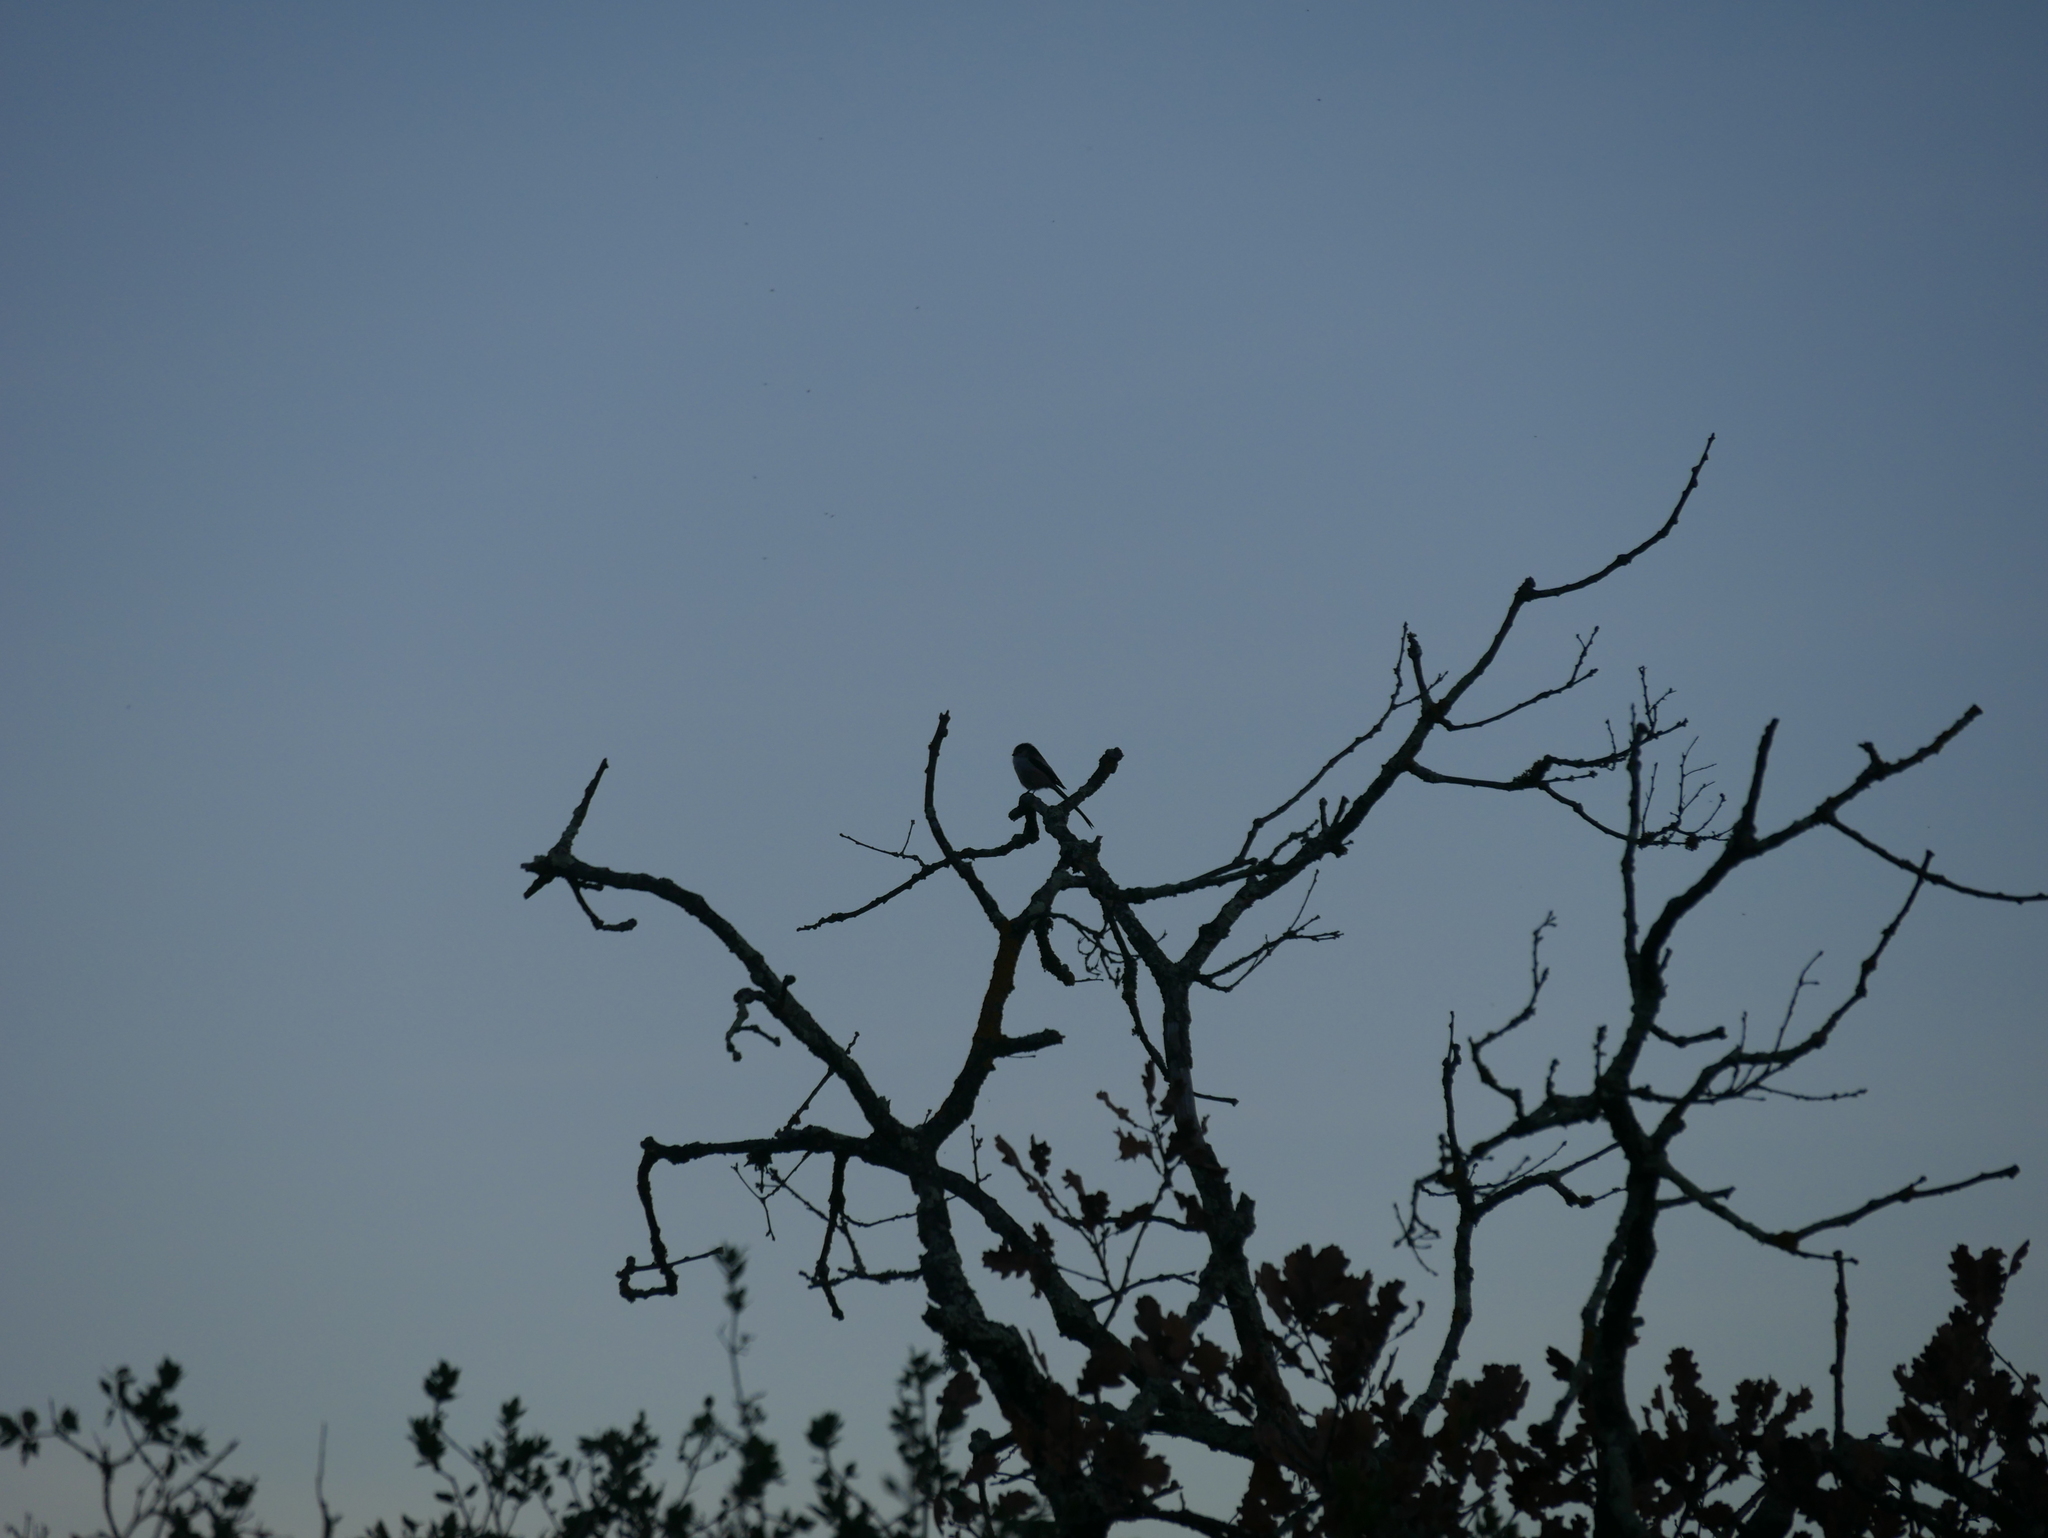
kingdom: Animalia
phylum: Chordata
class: Aves
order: Passeriformes
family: Aegithalidae
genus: Aegithalos
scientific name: Aegithalos caudatus
